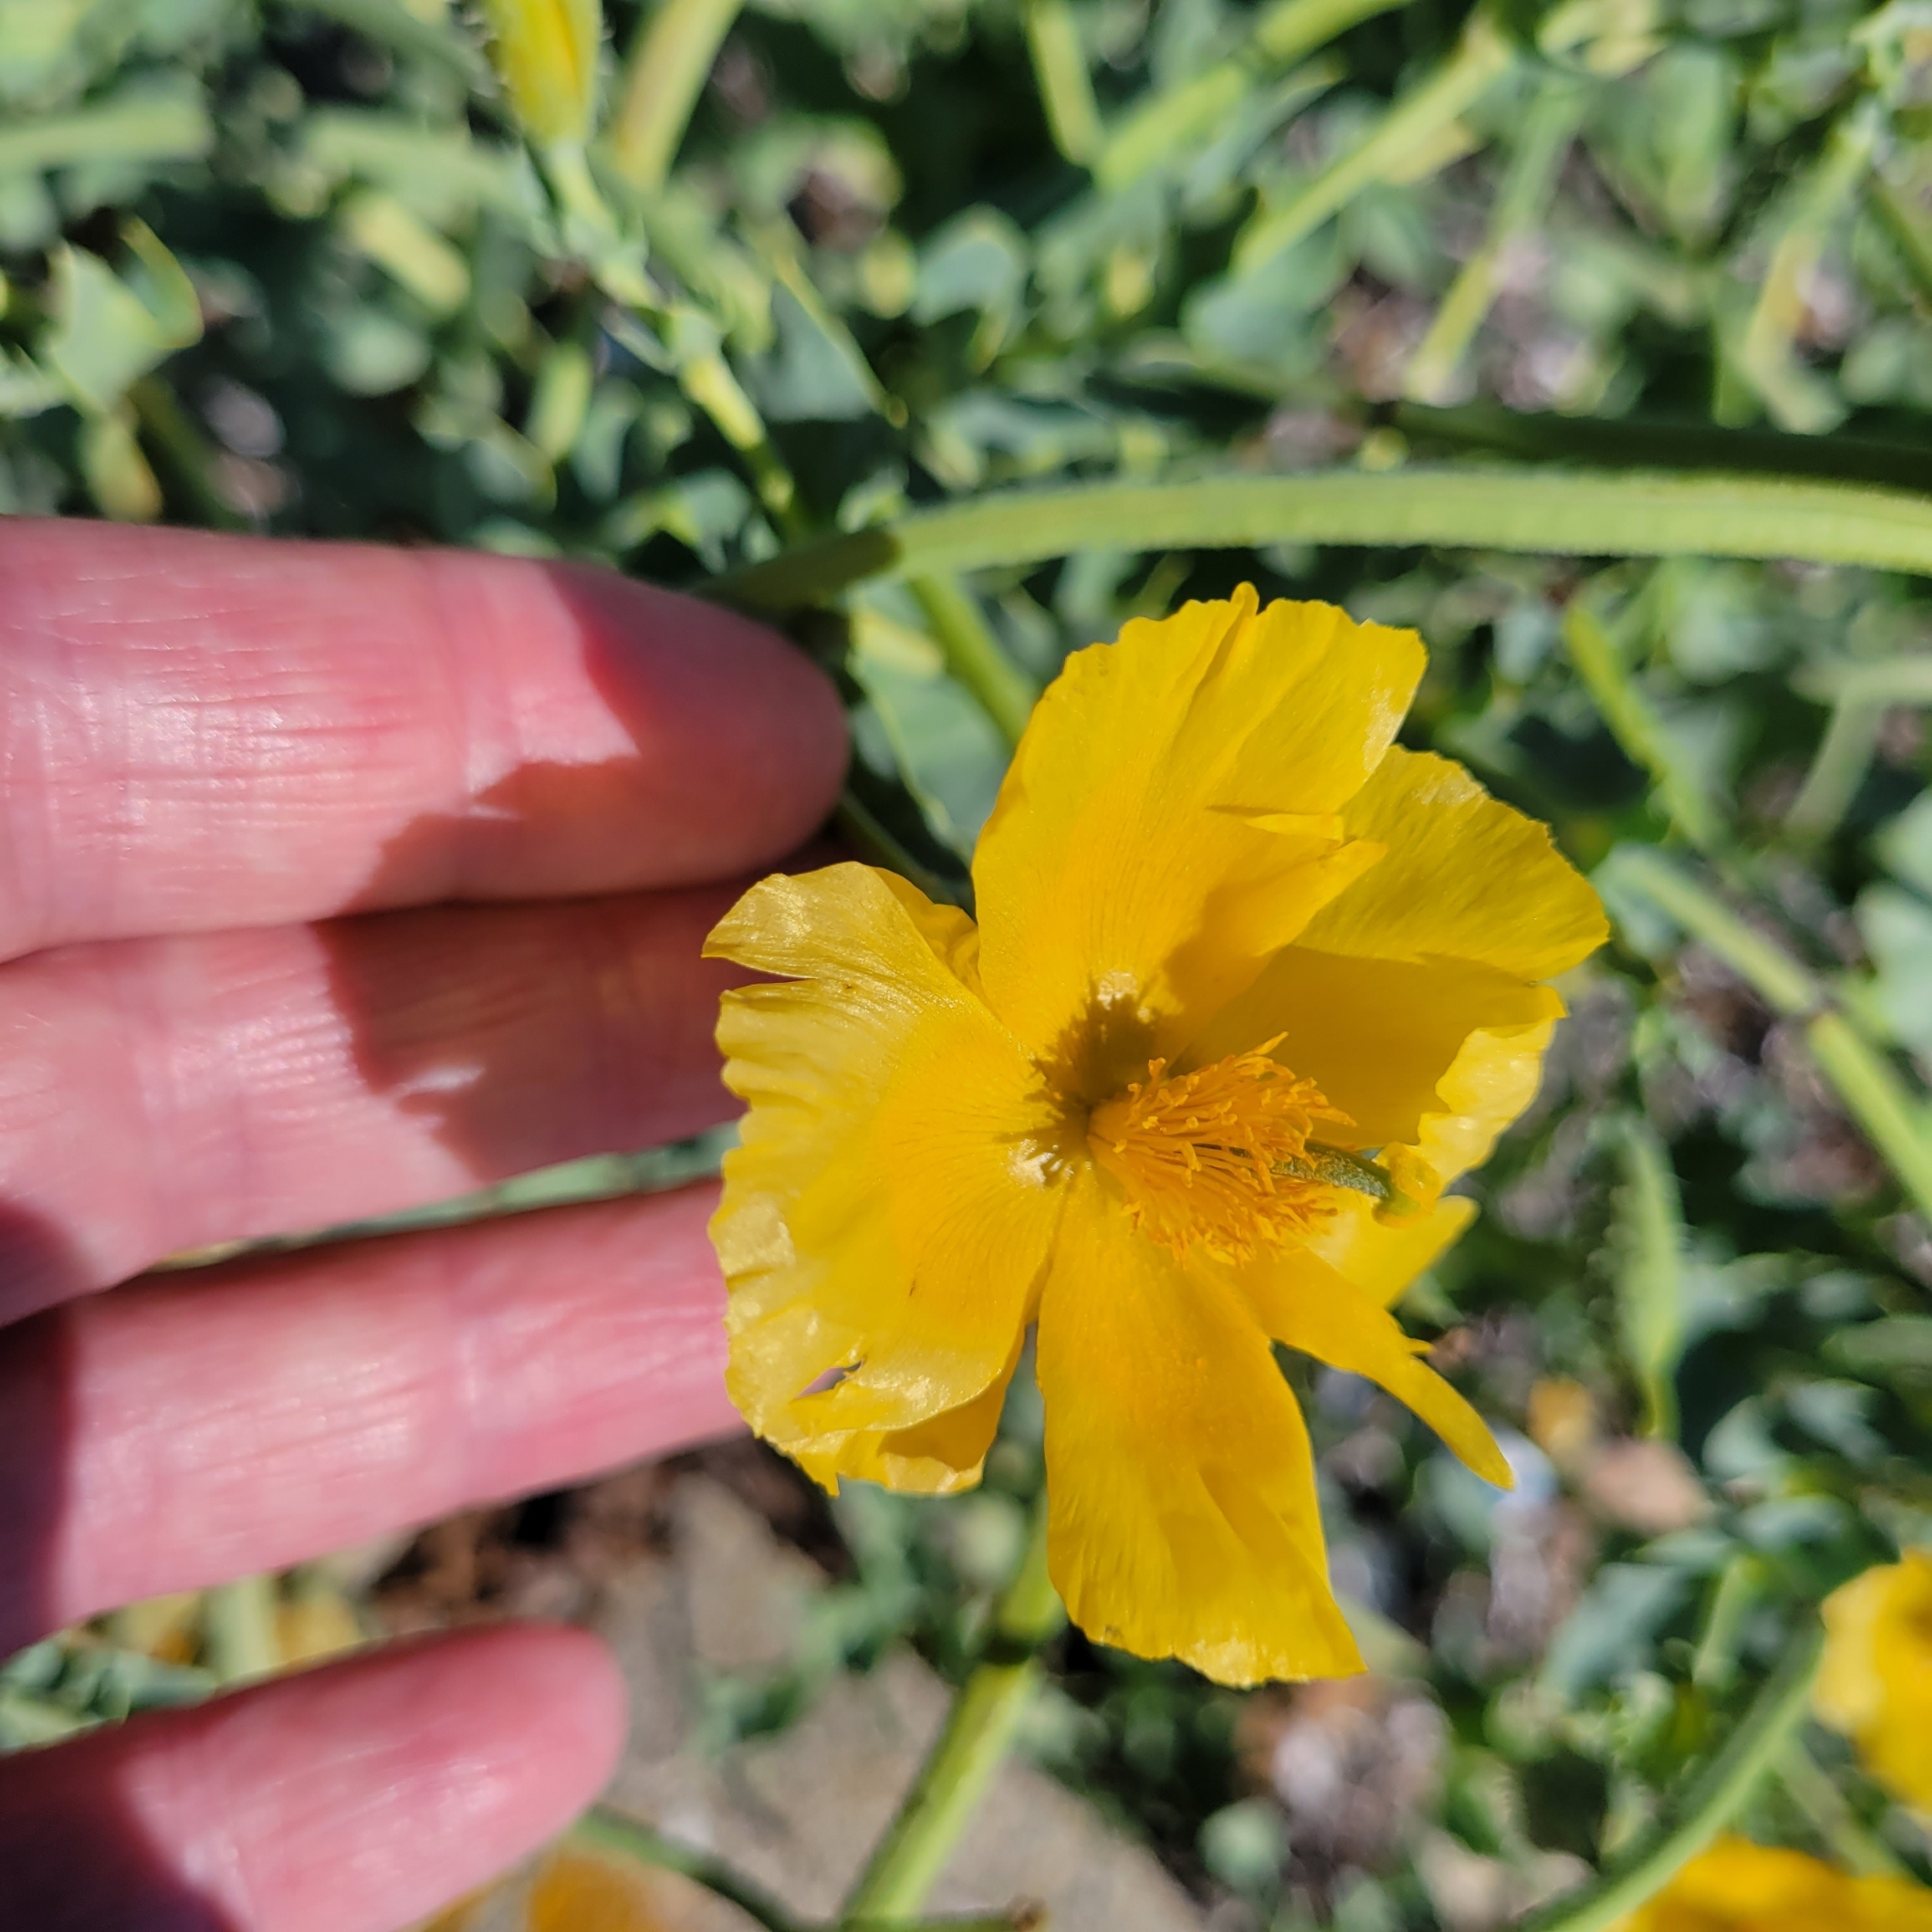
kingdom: Plantae
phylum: Tracheophyta
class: Magnoliopsida
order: Ranunculales
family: Papaveraceae
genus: Glaucium
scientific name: Glaucium flavum
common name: Yellow horned-poppy
